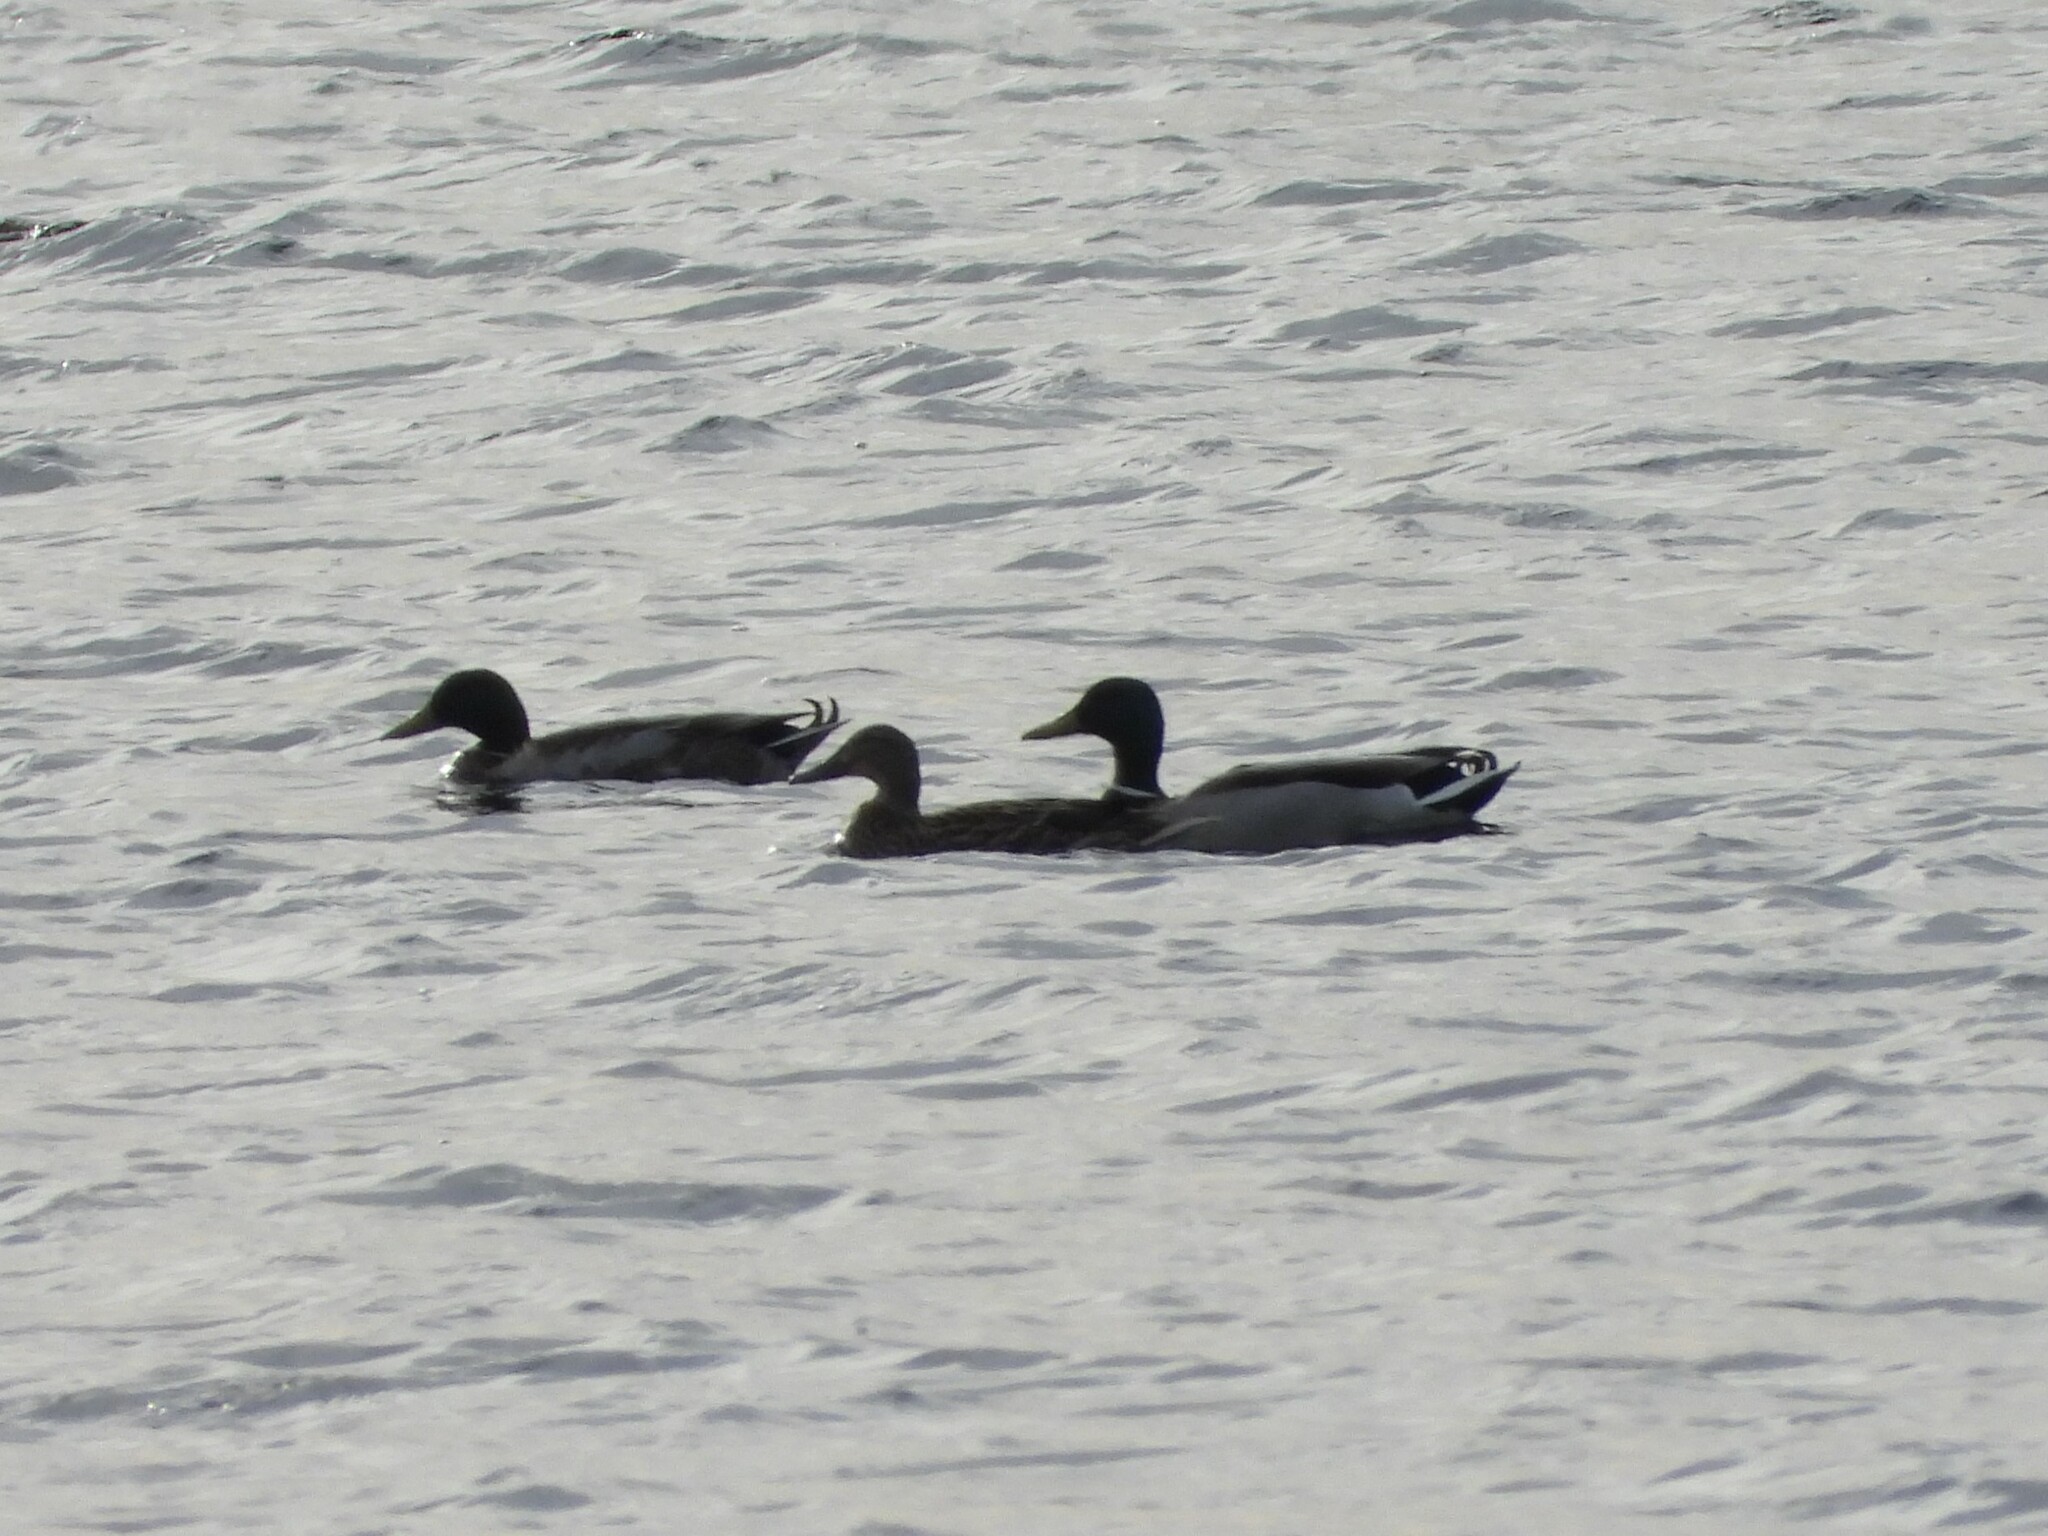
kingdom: Animalia
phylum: Chordata
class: Aves
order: Anseriformes
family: Anatidae
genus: Anas
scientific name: Anas platyrhynchos
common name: Mallard
